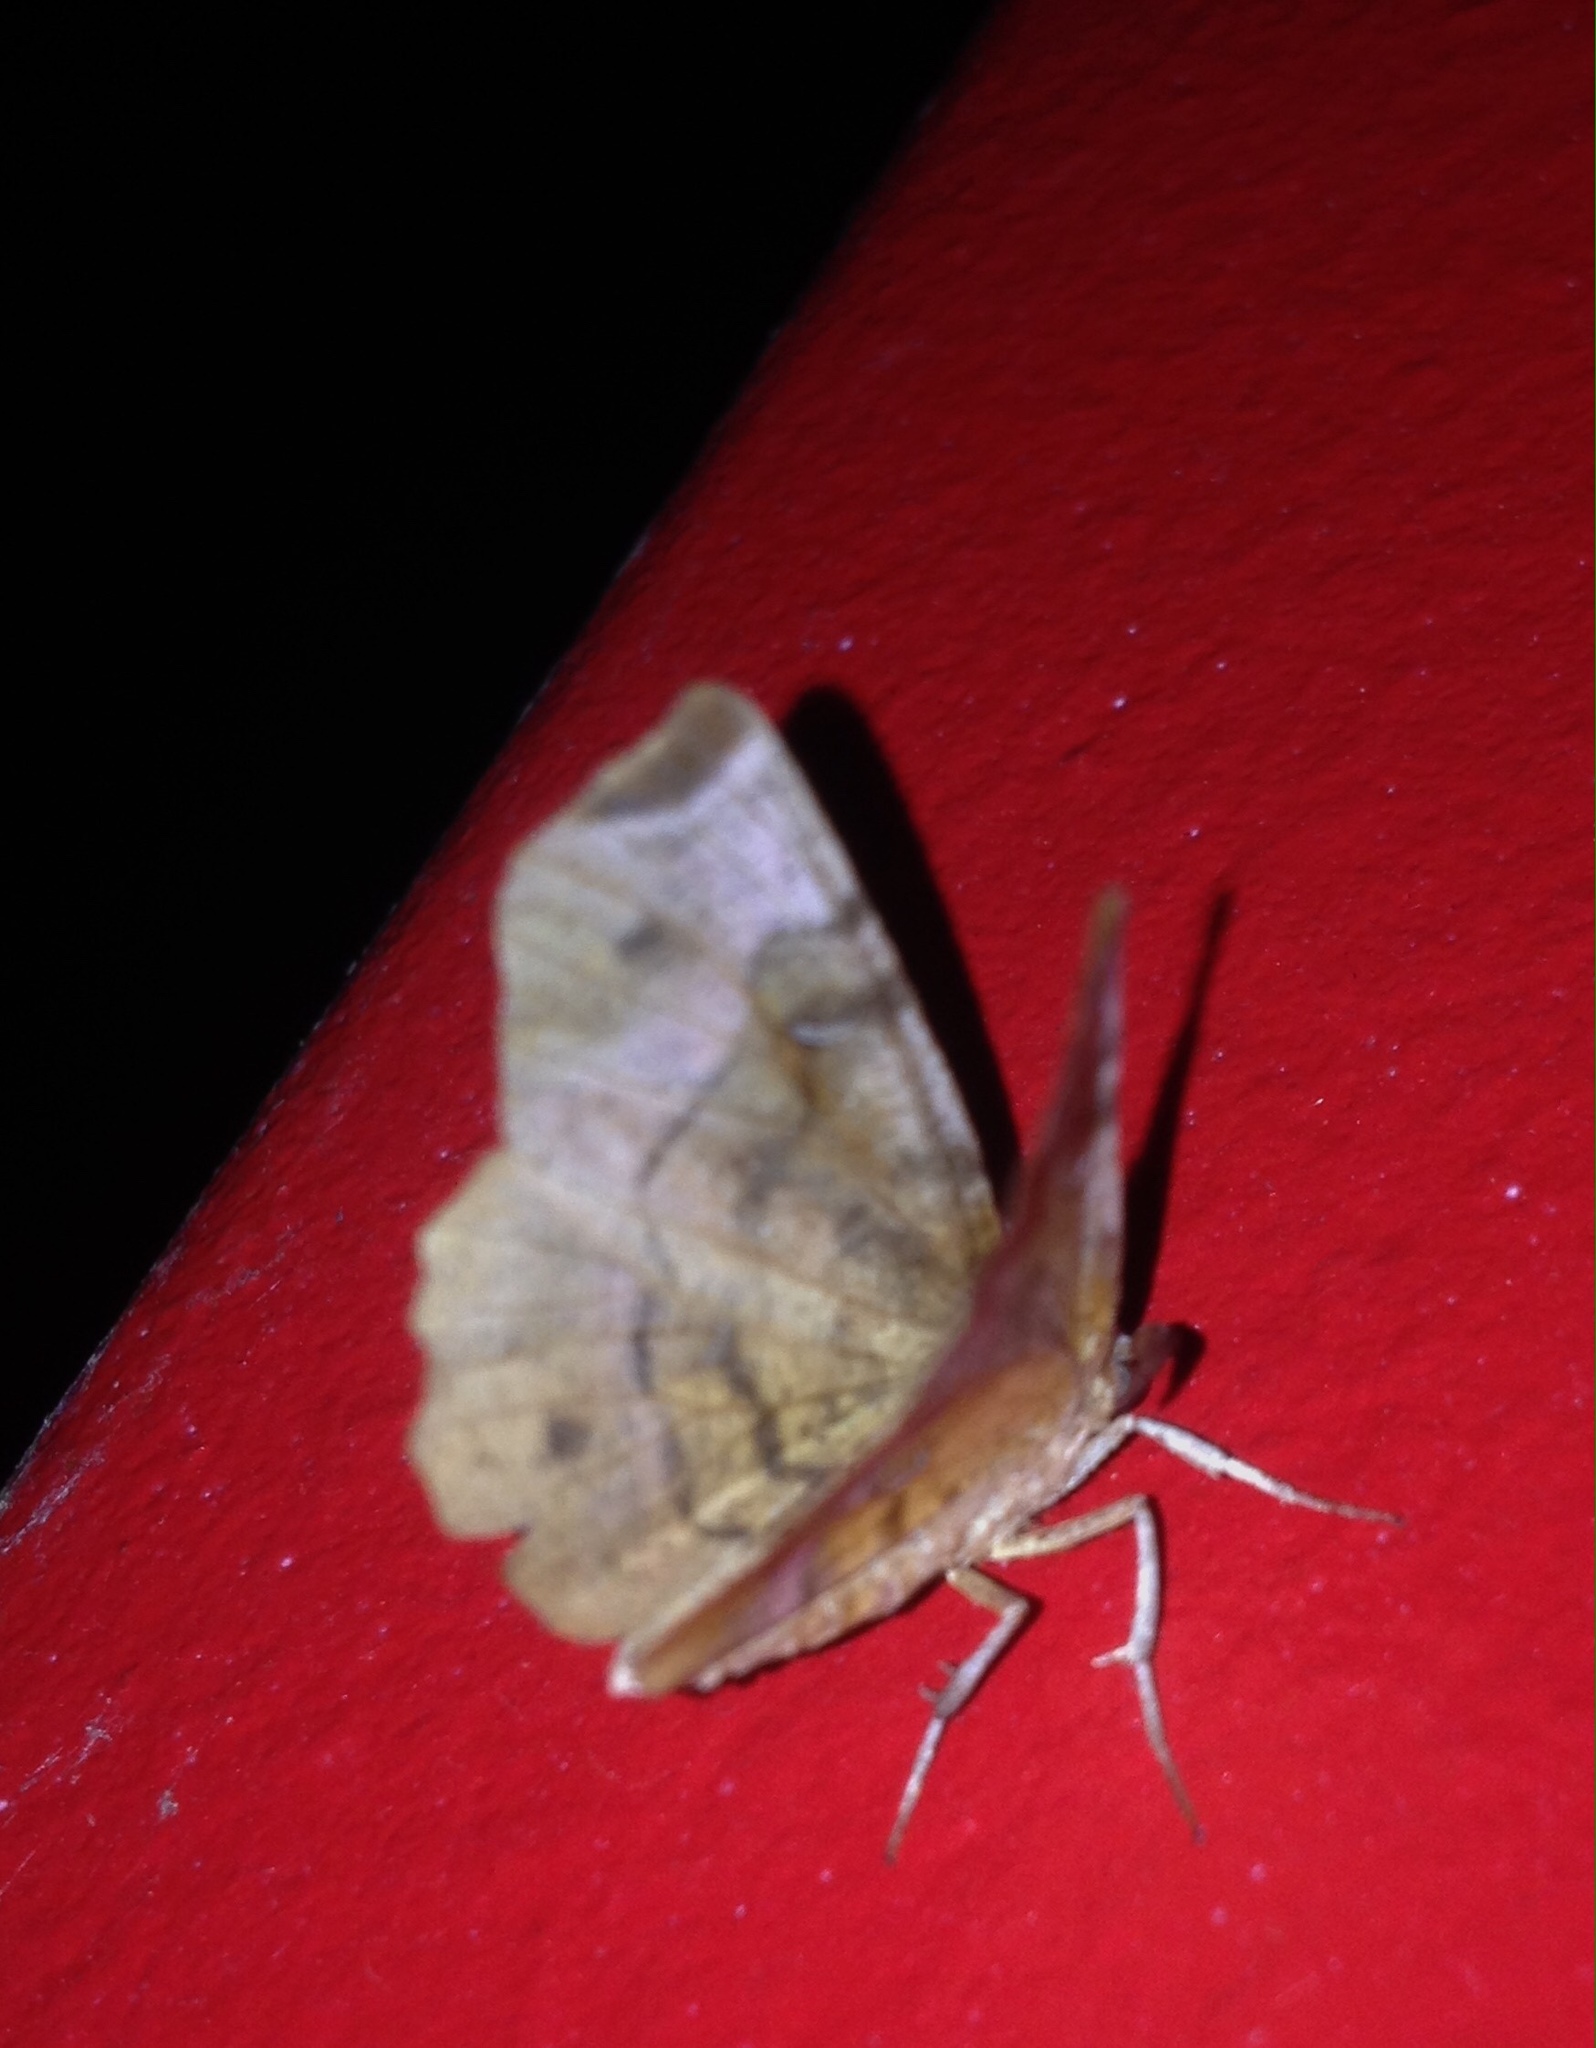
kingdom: Animalia
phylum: Arthropoda
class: Insecta
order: Lepidoptera
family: Geometridae
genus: Selenia
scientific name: Selenia tetralunaria
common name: Purple thorn
